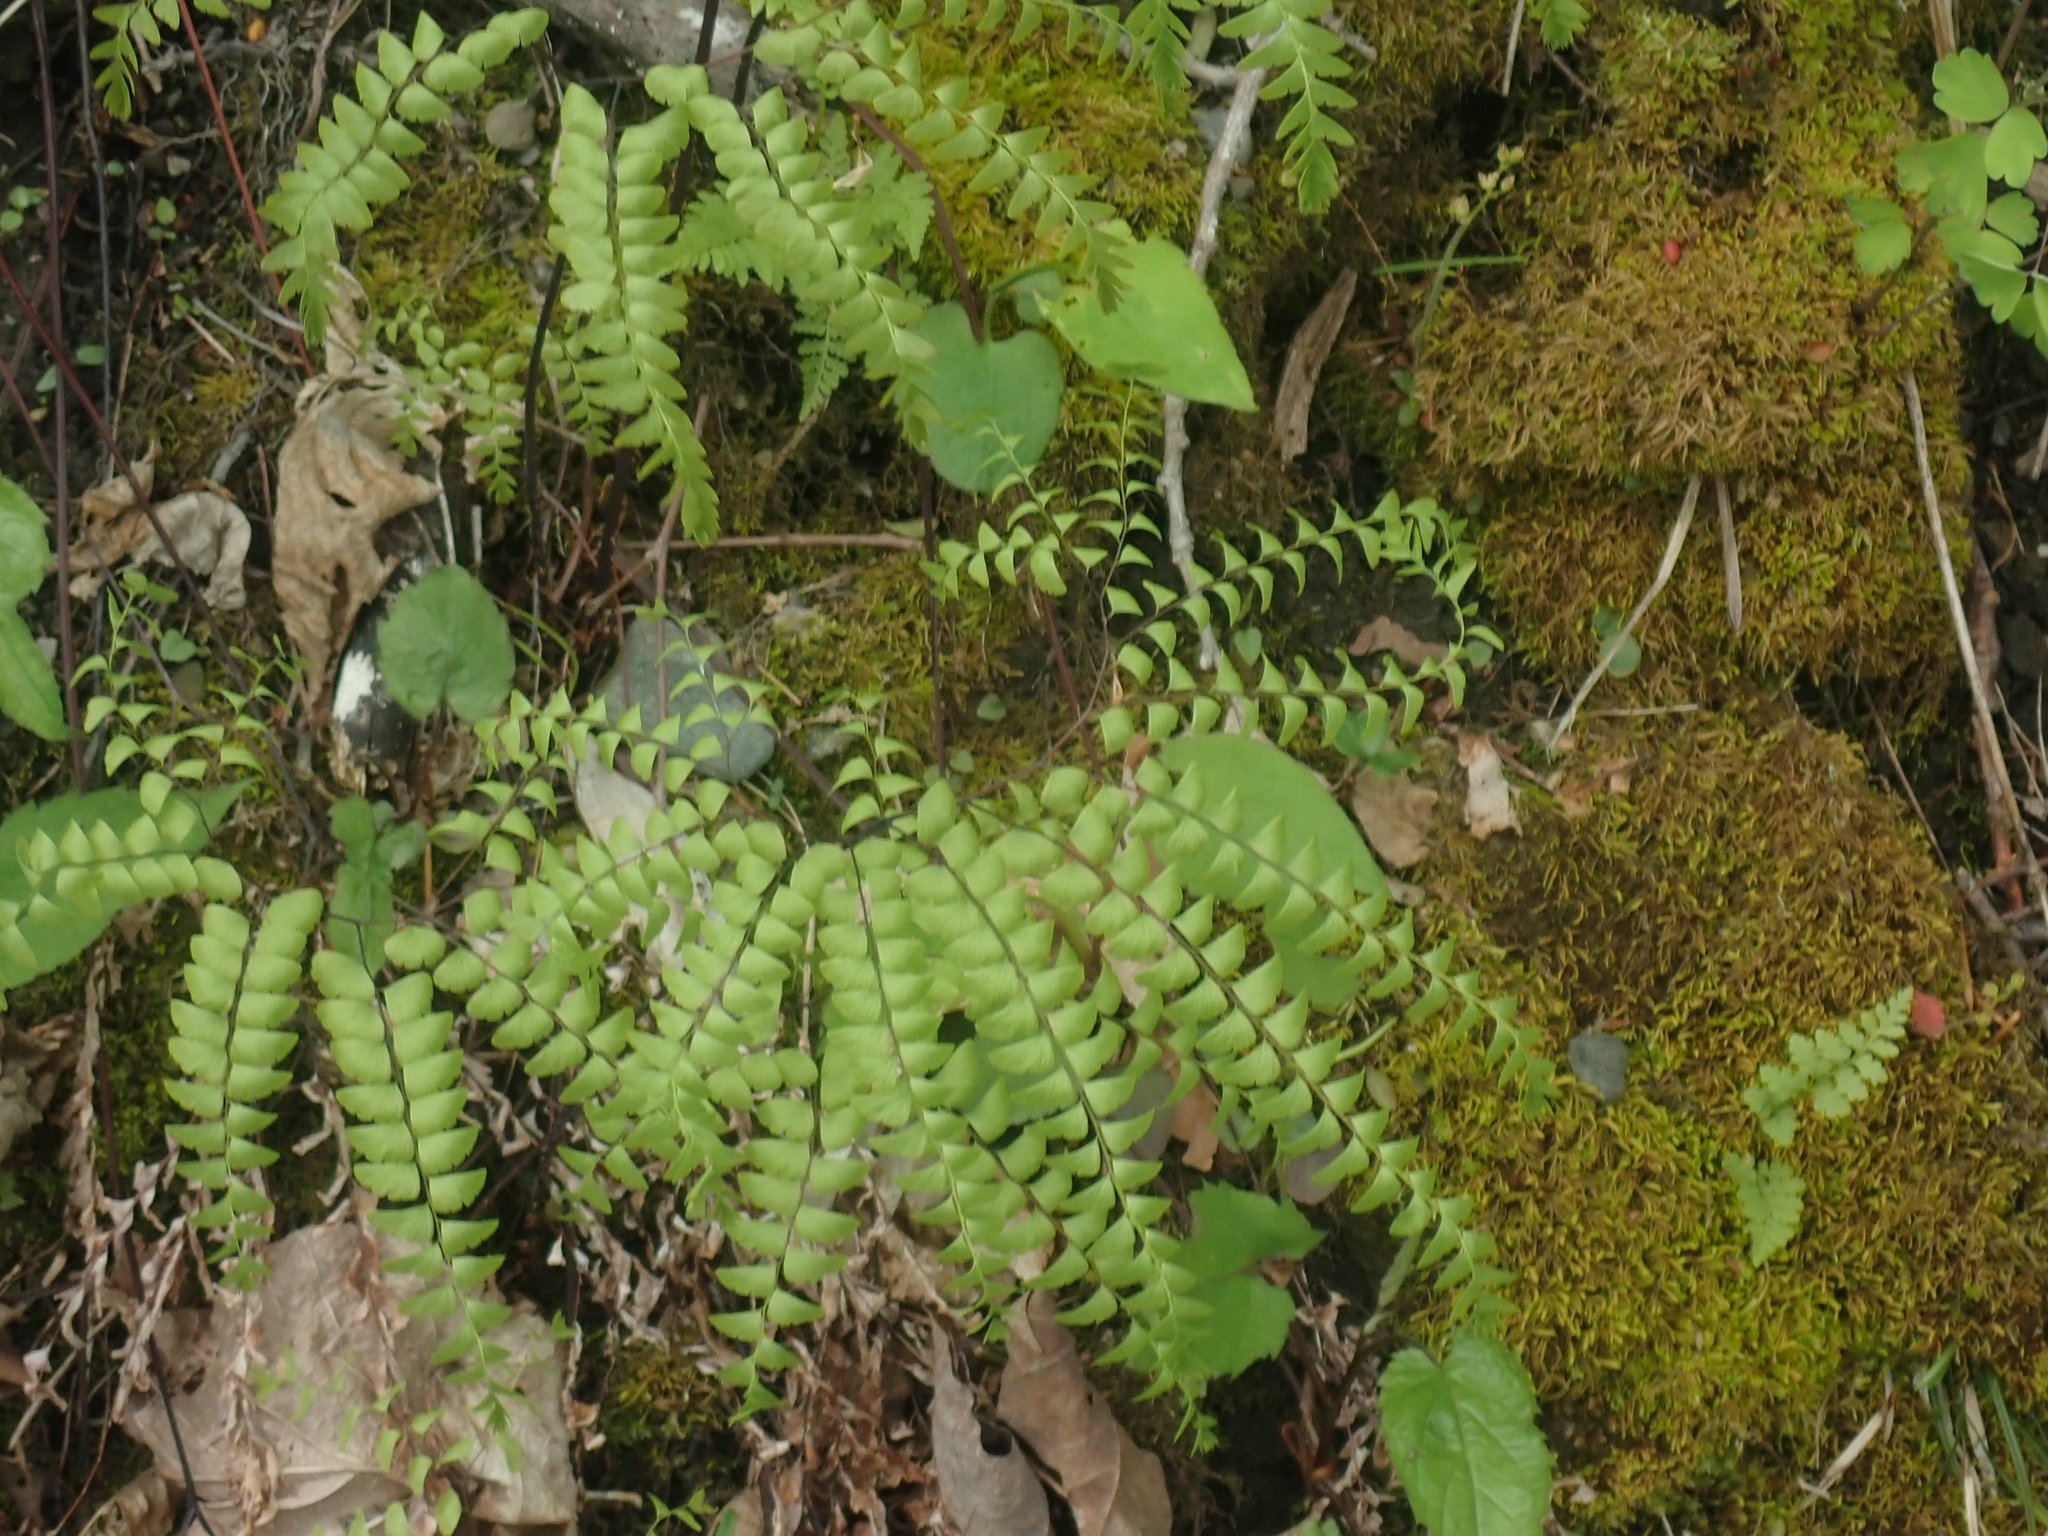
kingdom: Plantae
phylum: Tracheophyta
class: Polypodiopsida
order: Polypodiales
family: Pteridaceae
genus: Adiantum
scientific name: Adiantum pedatum
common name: Five-finger fern
